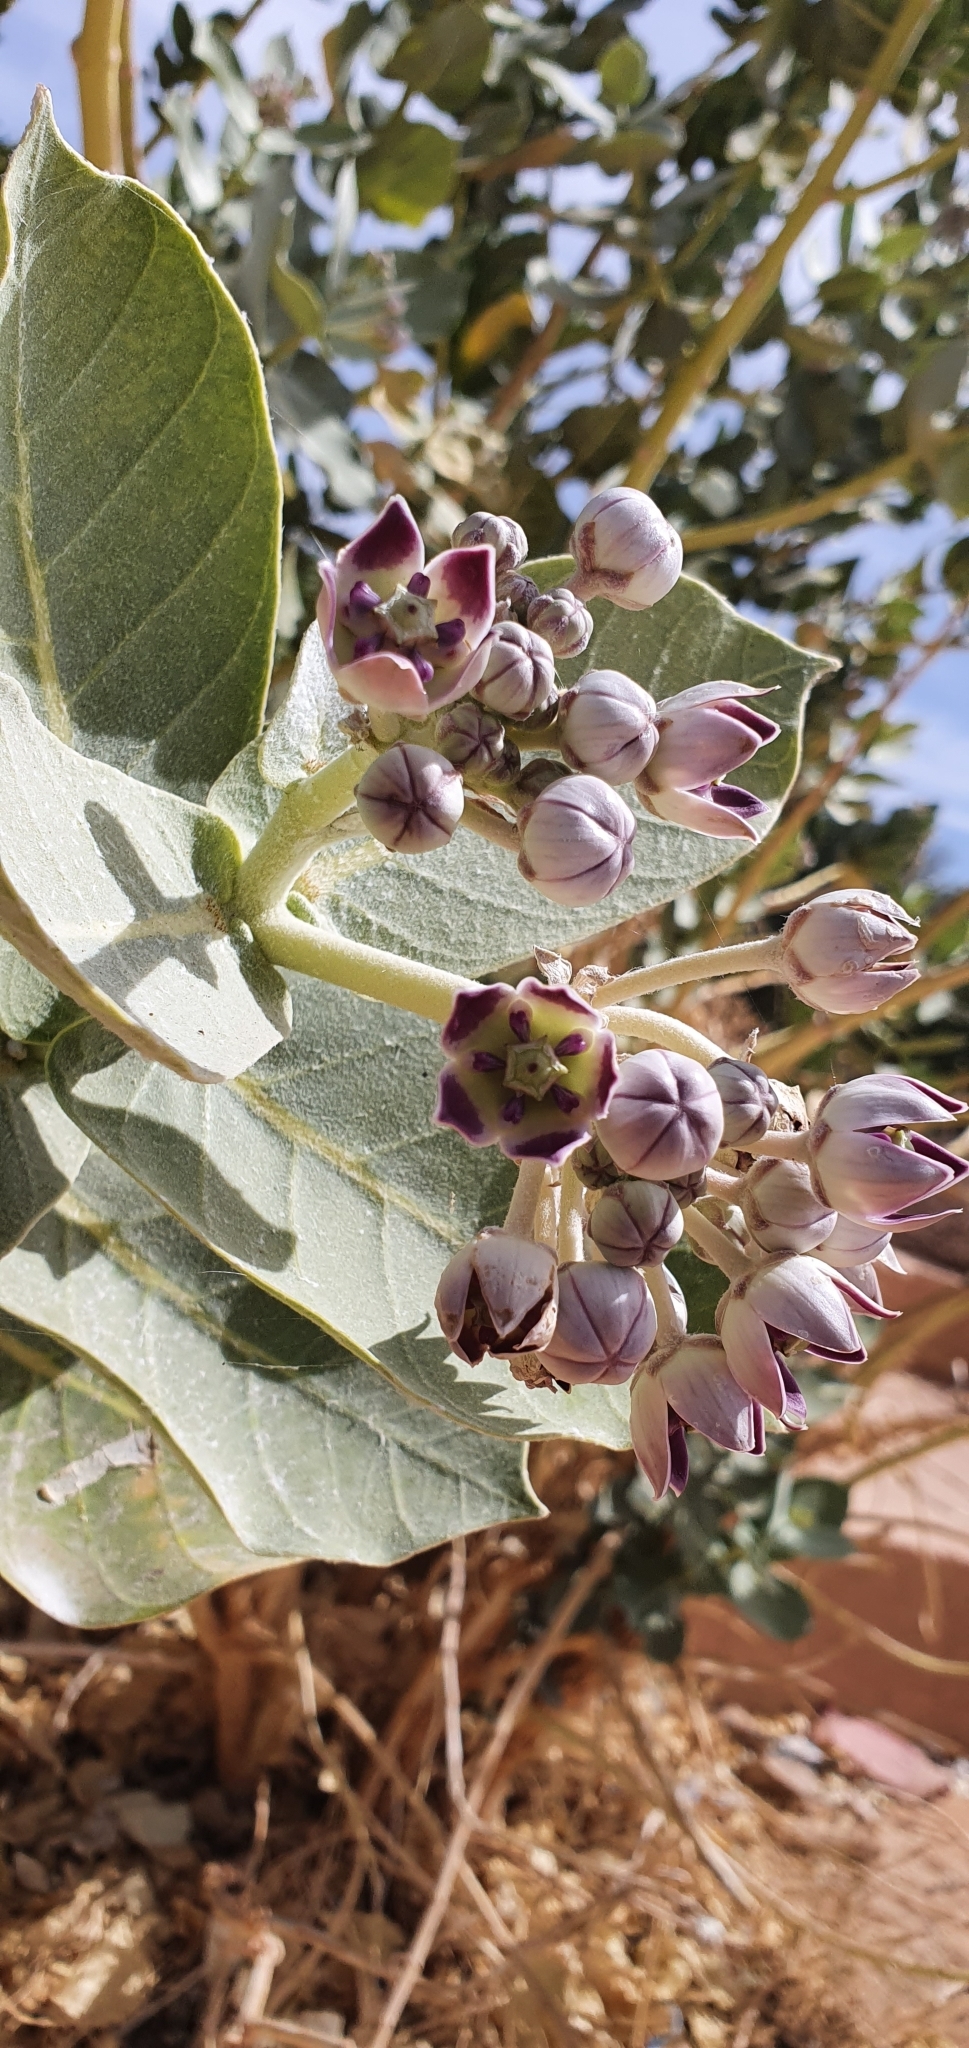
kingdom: Plantae
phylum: Tracheophyta
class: Magnoliopsida
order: Gentianales
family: Apocynaceae
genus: Calotropis
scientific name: Calotropis procera
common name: Roostertree
